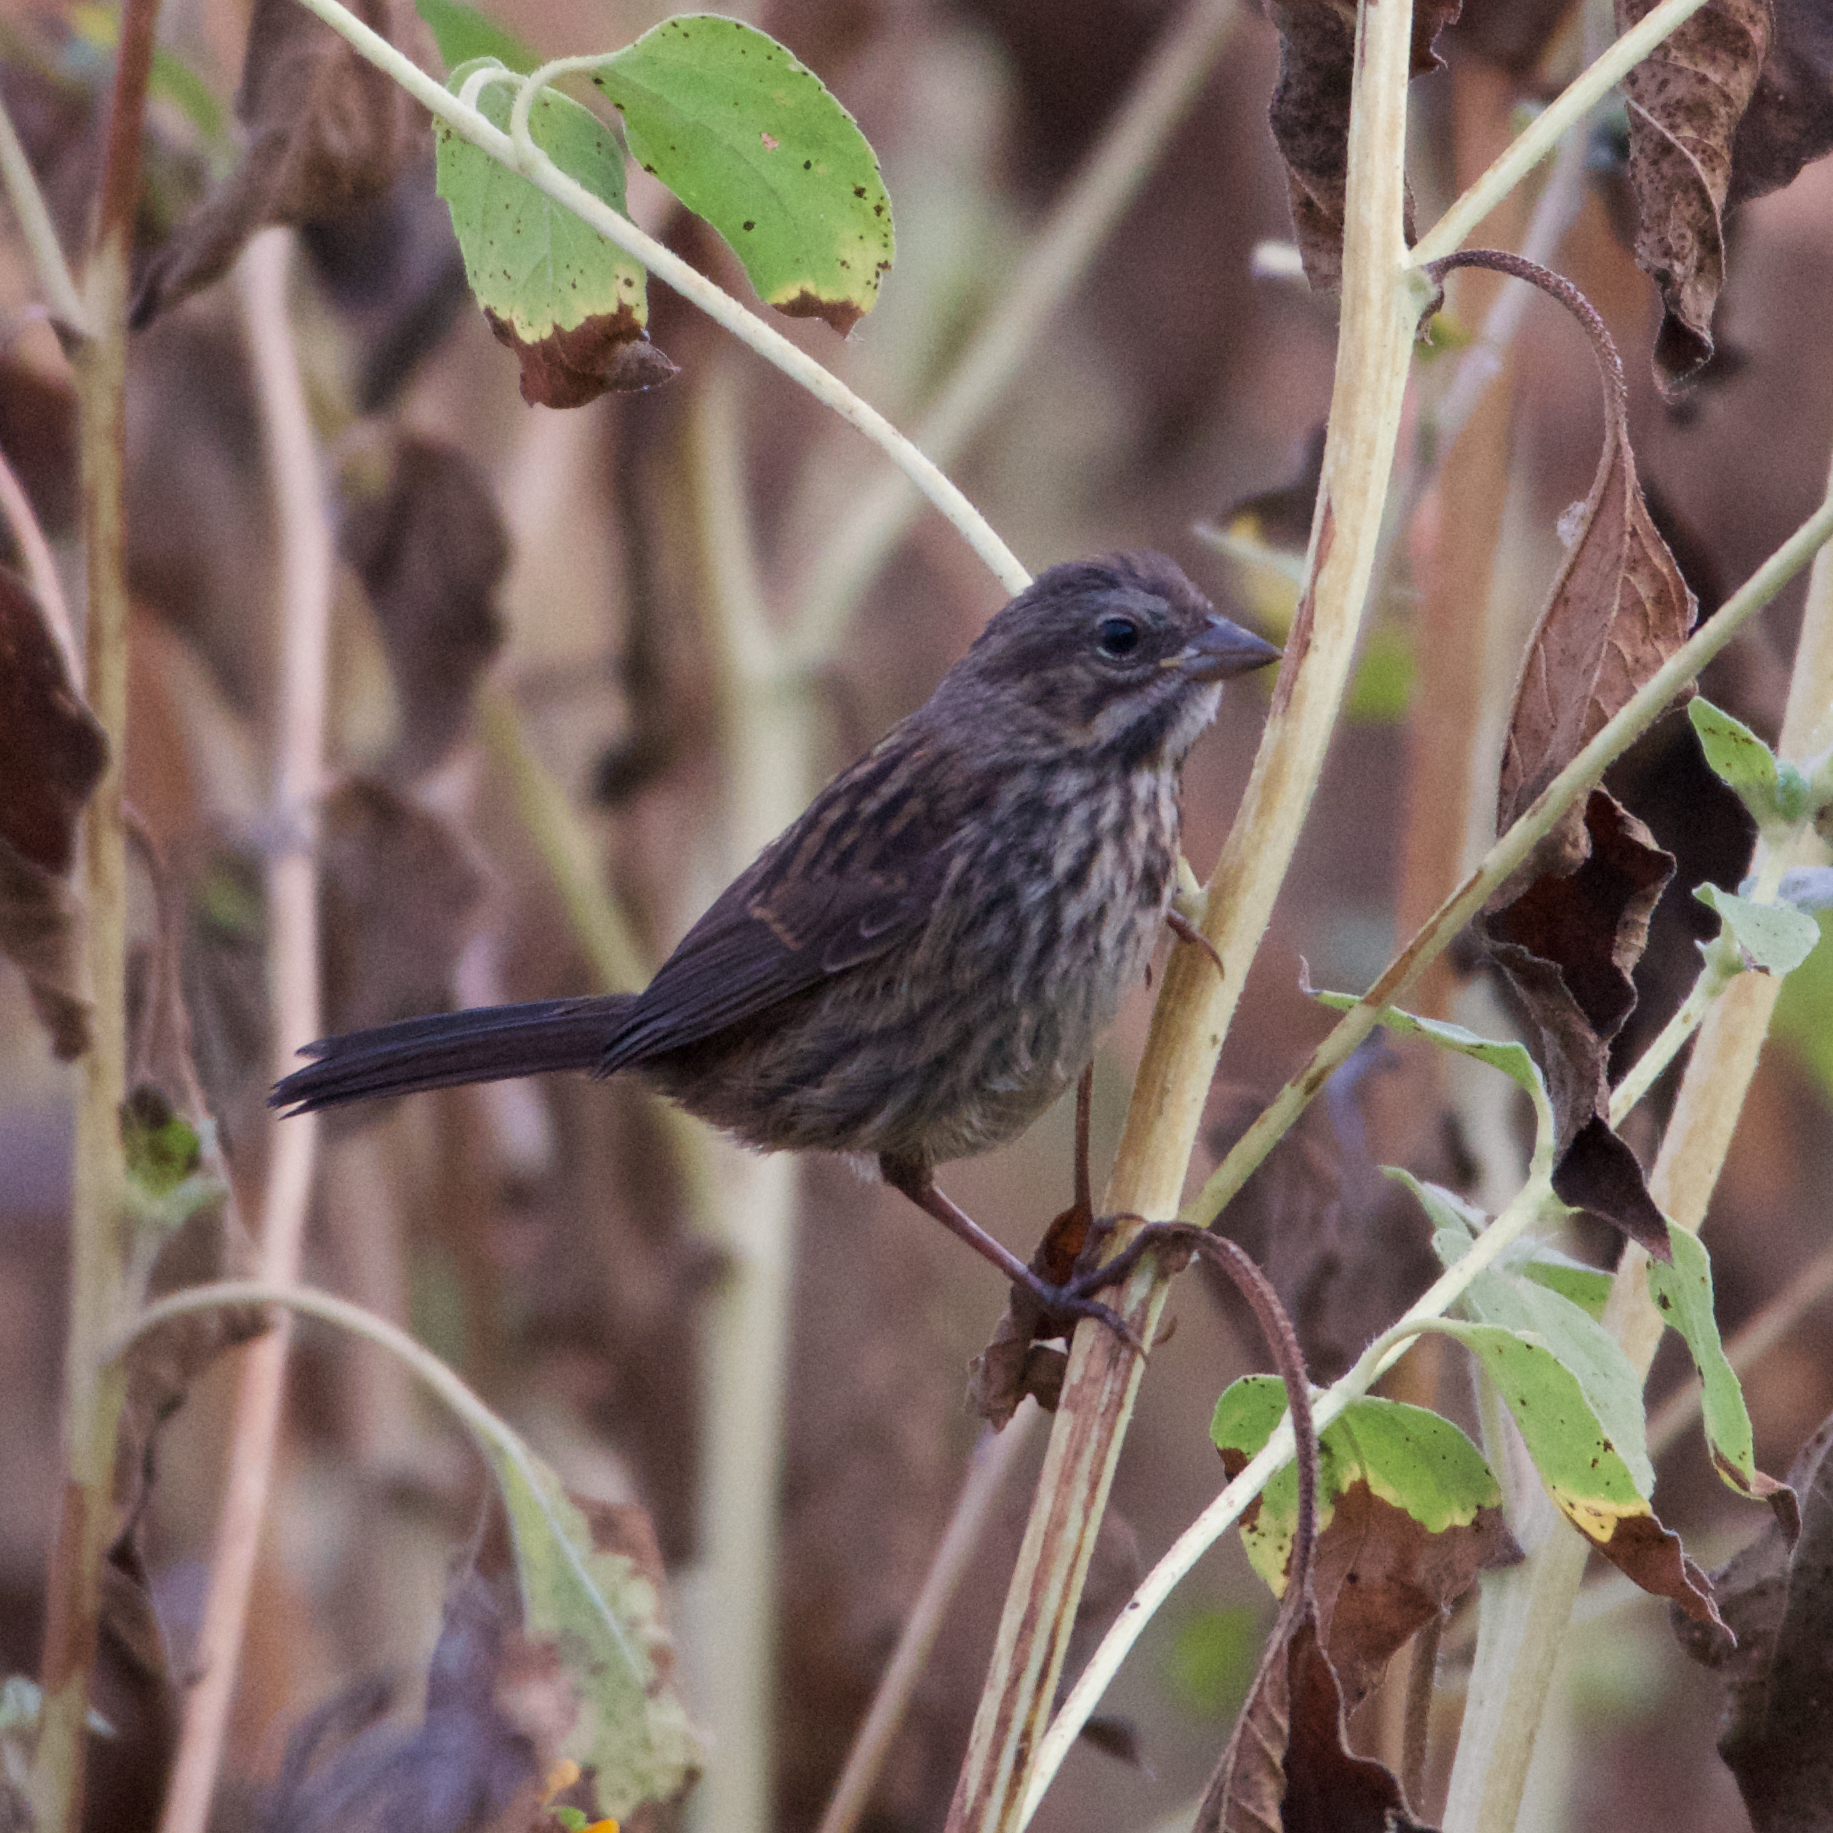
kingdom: Animalia
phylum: Chordata
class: Aves
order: Passeriformes
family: Passerellidae
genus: Melospiza
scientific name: Melospiza melodia
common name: Song sparrow
